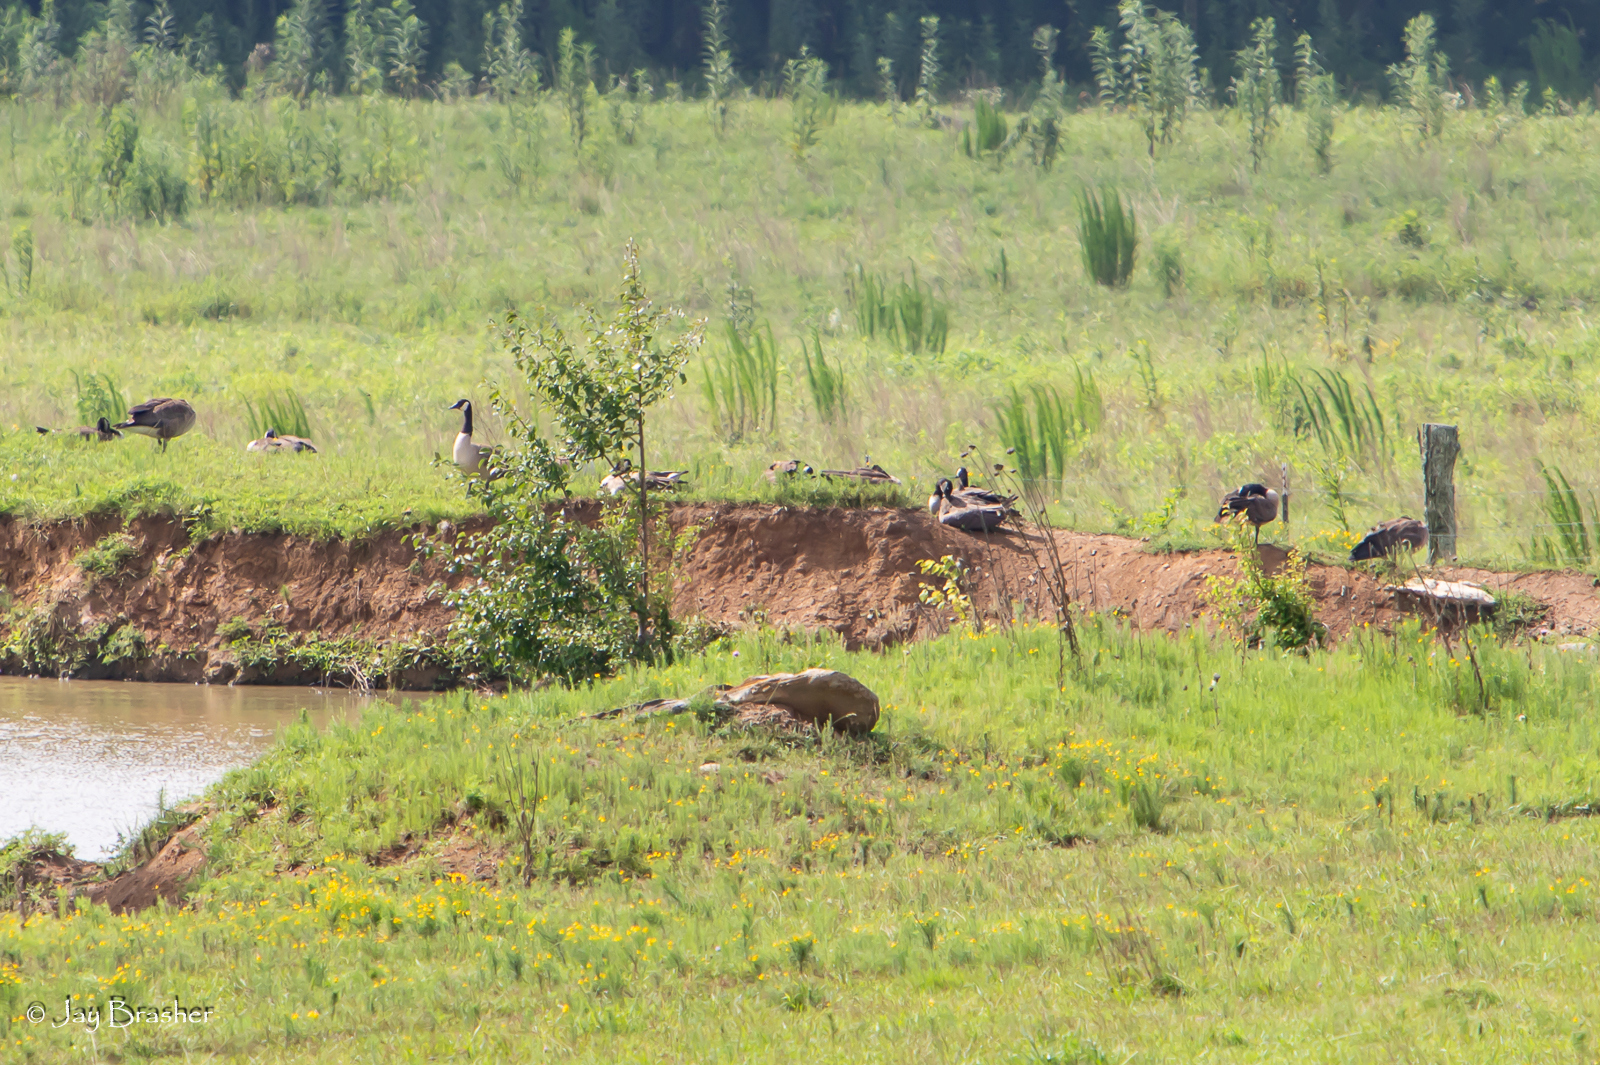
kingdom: Animalia
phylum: Chordata
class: Aves
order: Anseriformes
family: Anatidae
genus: Branta
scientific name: Branta canadensis
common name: Canada goose
